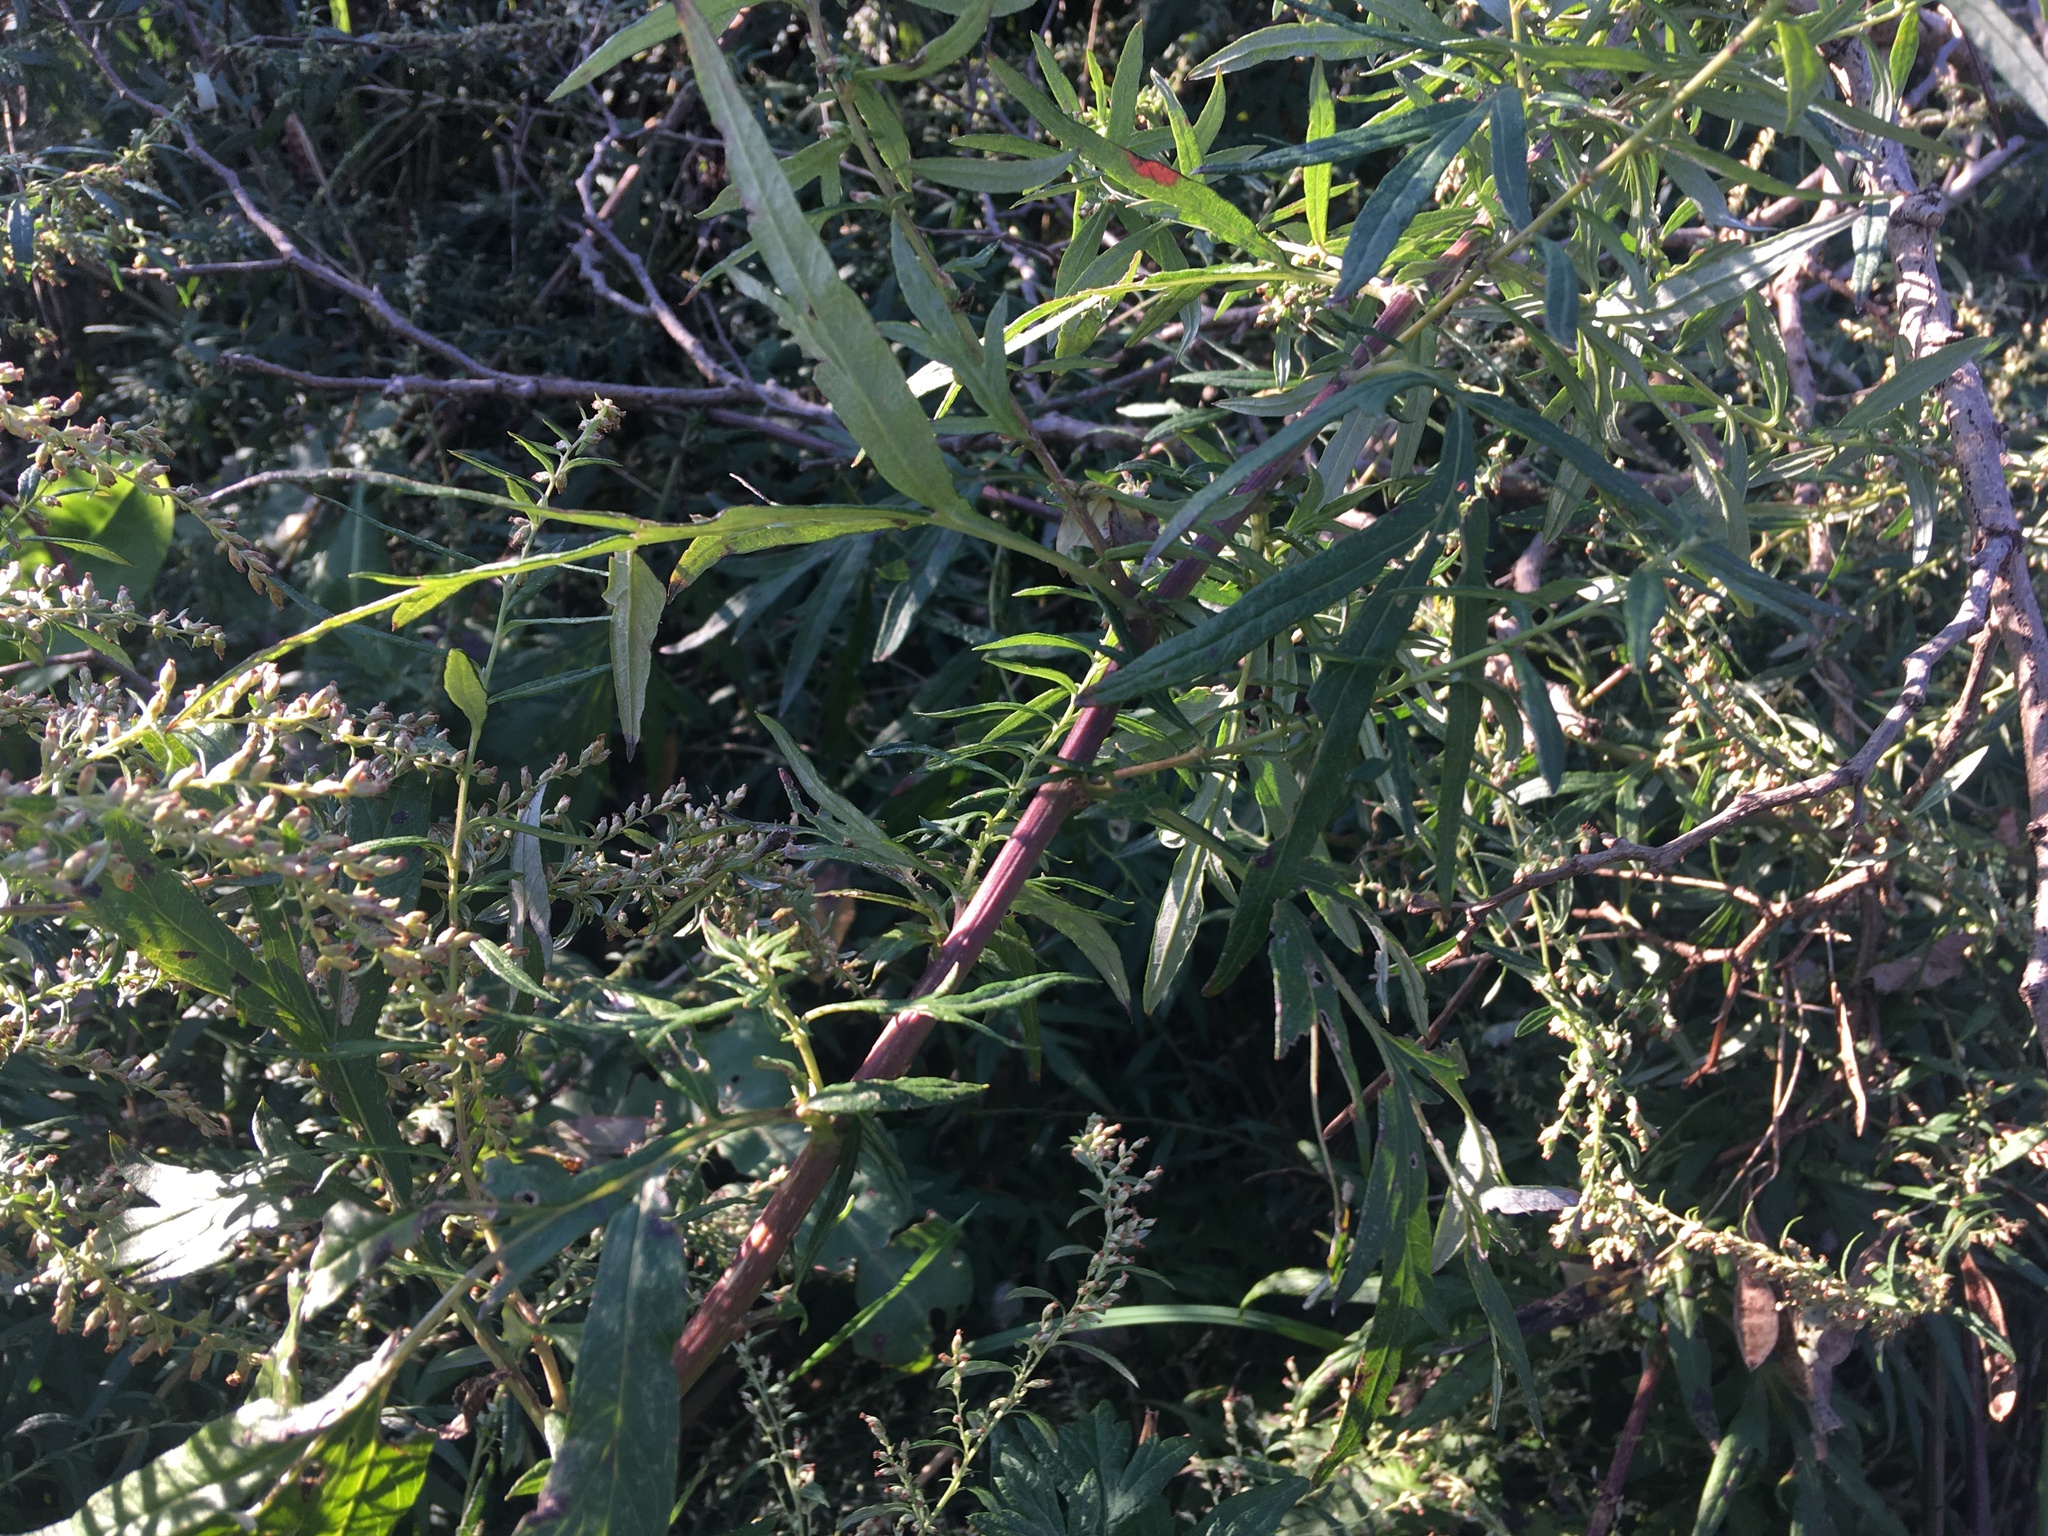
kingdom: Plantae
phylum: Tracheophyta
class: Magnoliopsida
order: Asterales
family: Asteraceae
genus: Artemisia
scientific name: Artemisia vulgaris
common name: Mugwort
